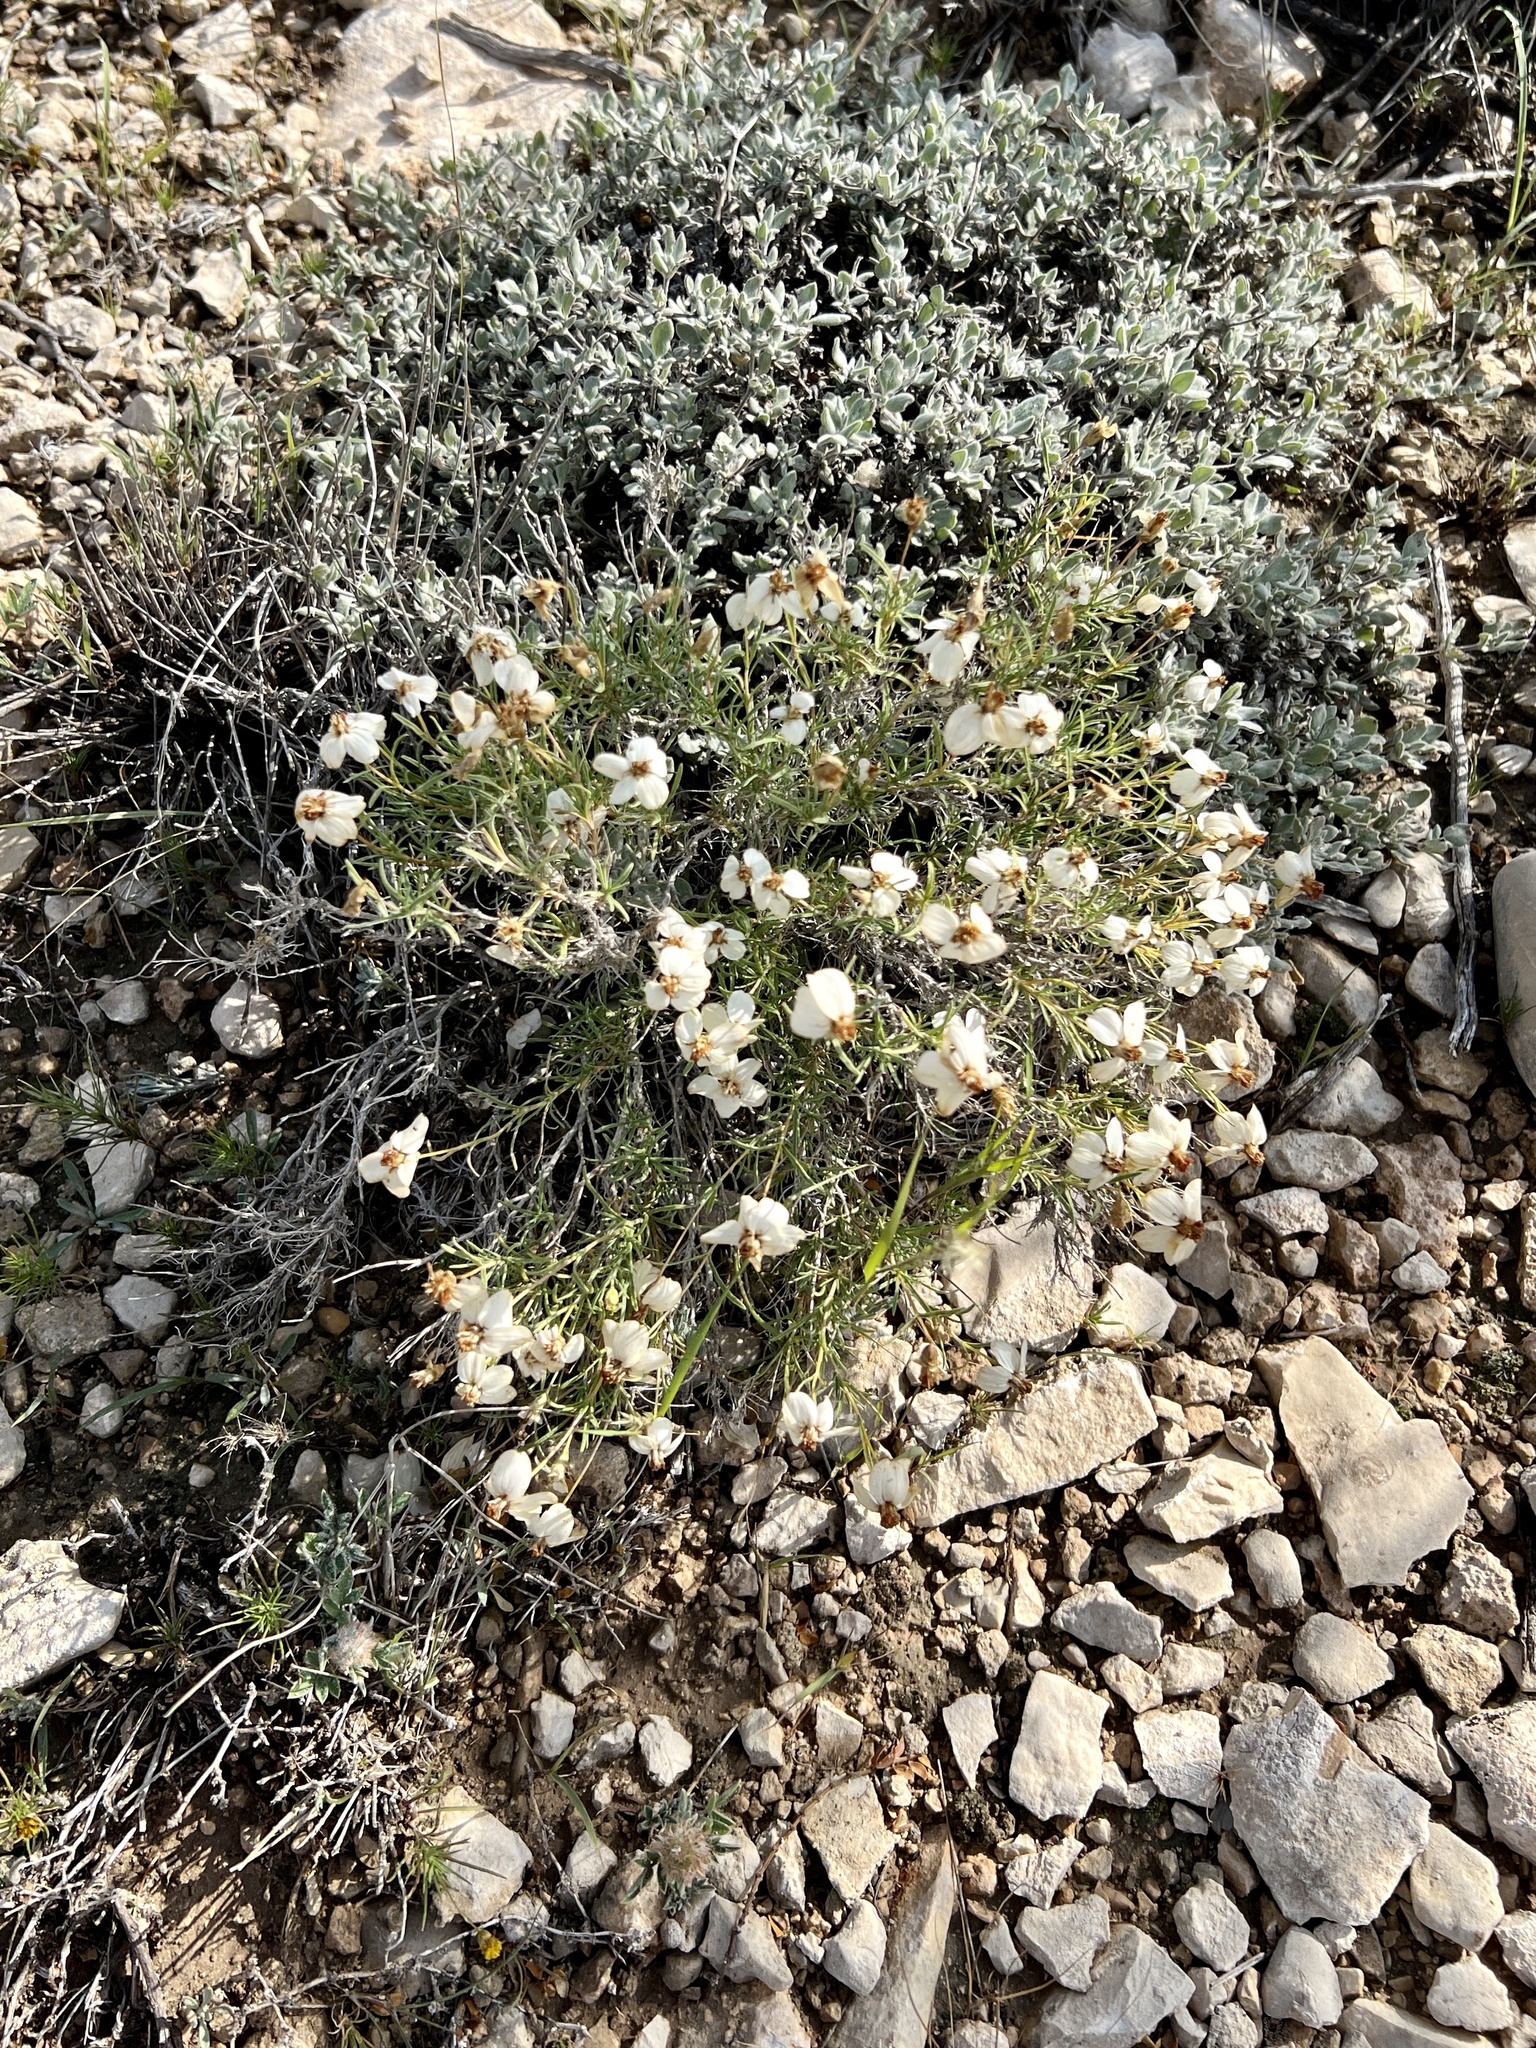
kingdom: Plantae
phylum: Tracheophyta
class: Magnoliopsida
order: Asterales
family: Asteraceae
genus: Zinnia
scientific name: Zinnia acerosa
